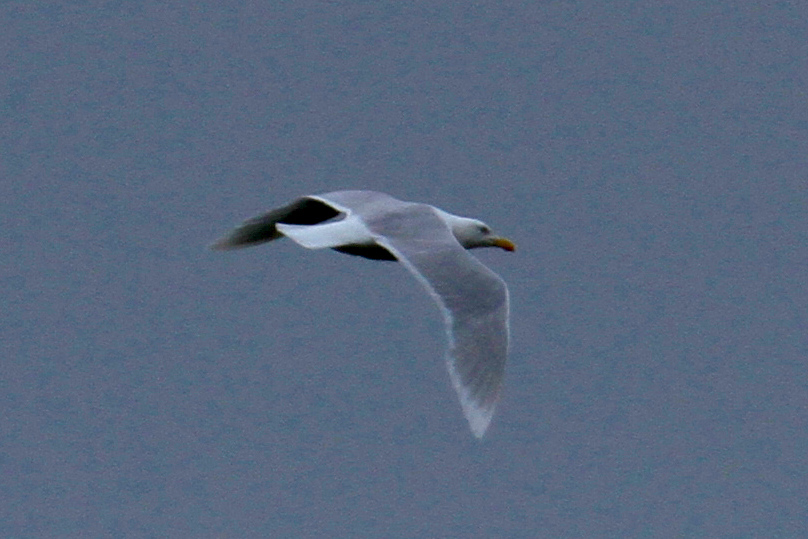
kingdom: Animalia
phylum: Chordata
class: Aves
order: Charadriiformes
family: Laridae
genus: Larus
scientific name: Larus hyperboreus
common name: Glaucous gull
